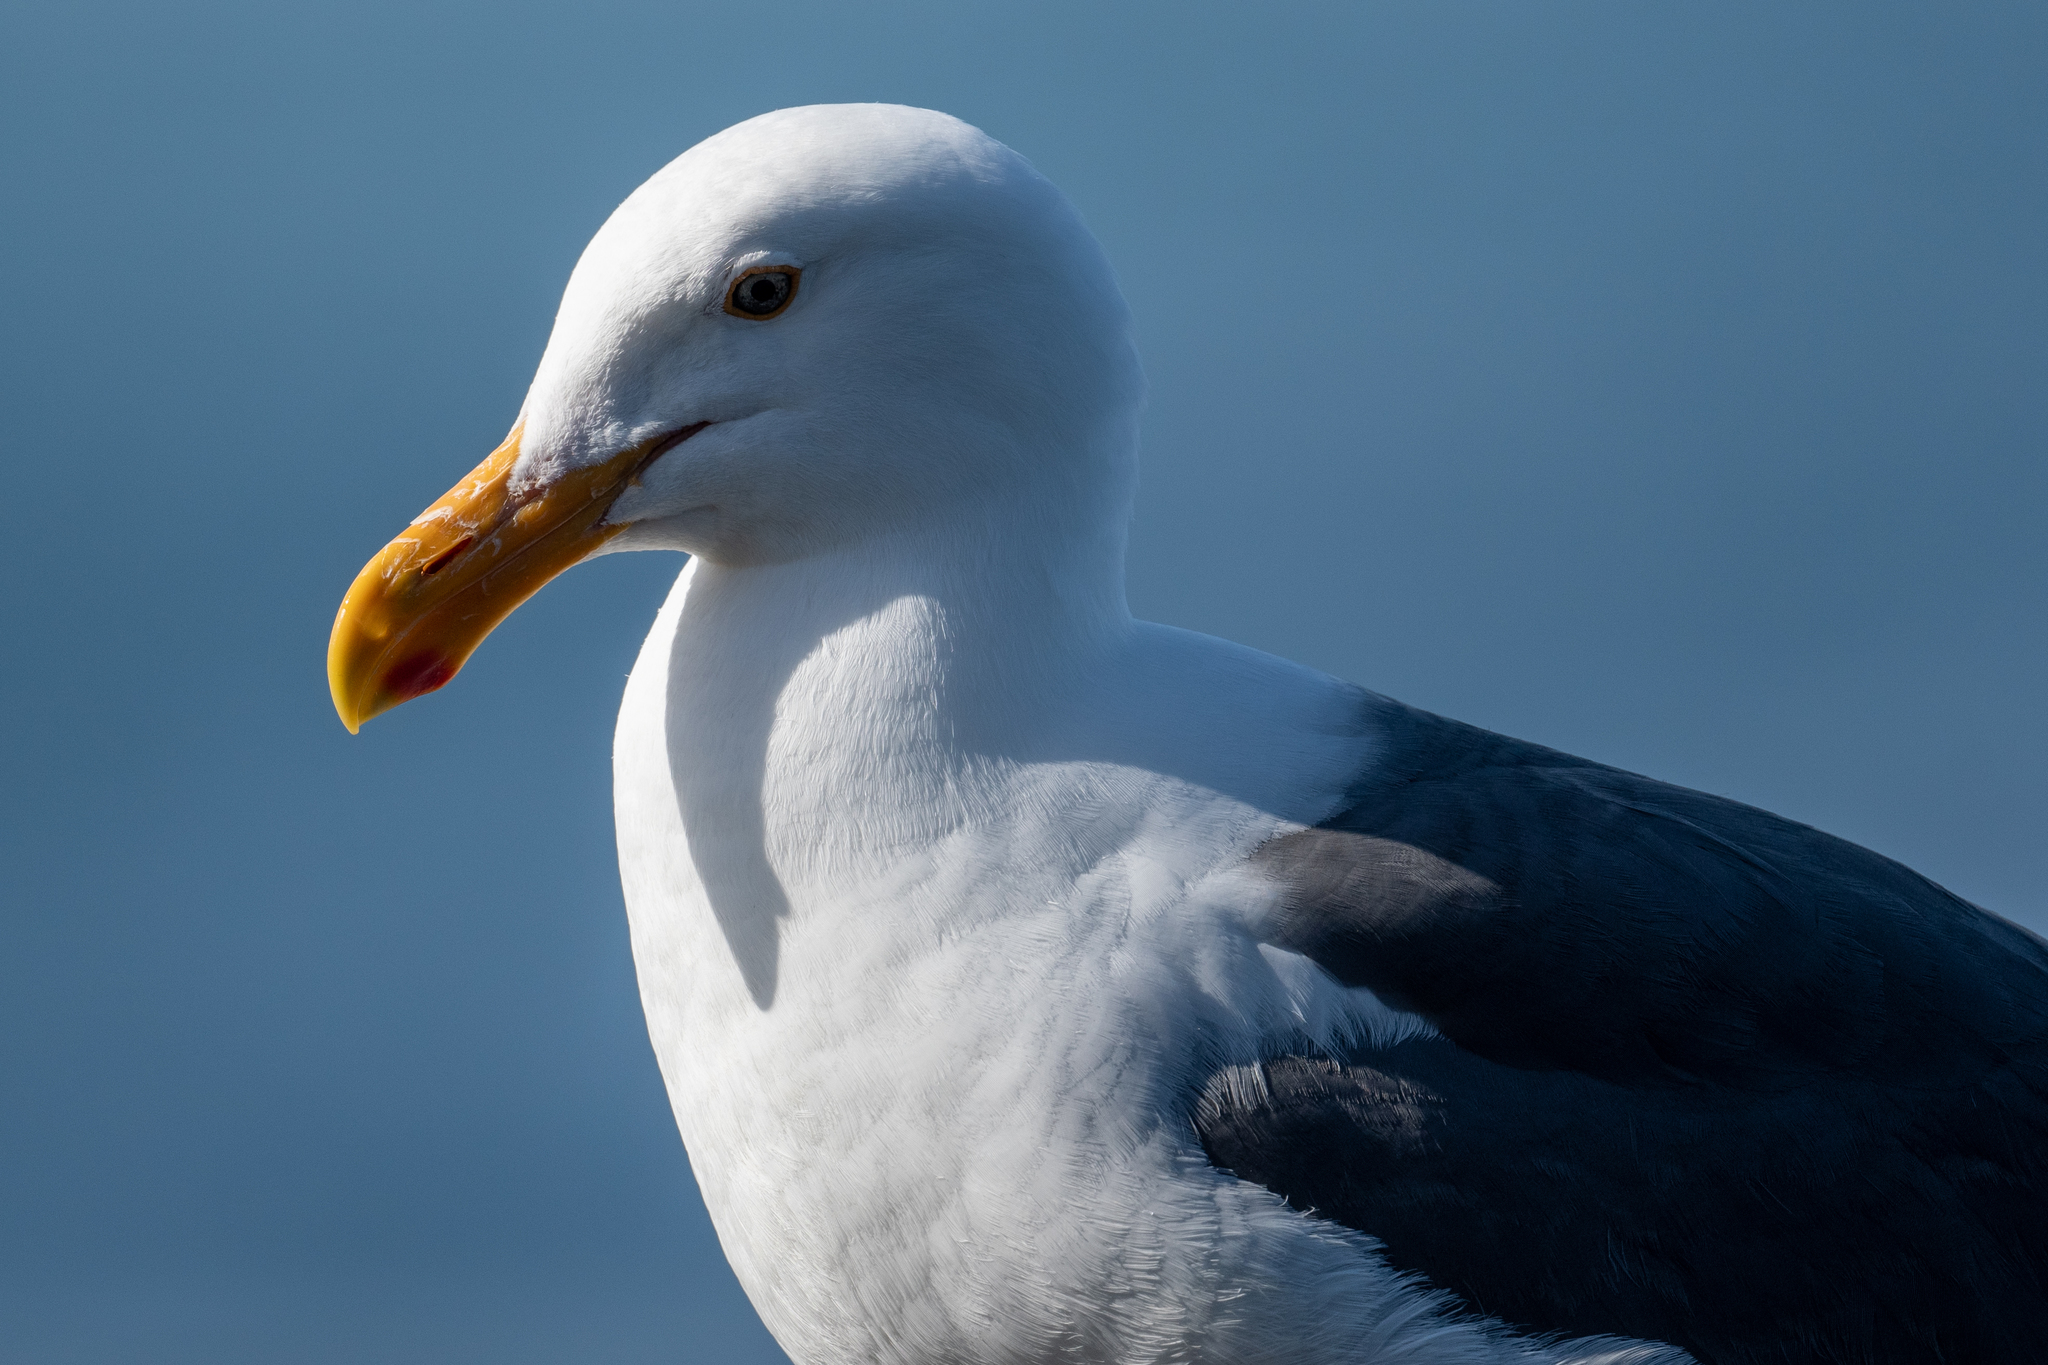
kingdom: Animalia
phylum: Chordata
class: Aves
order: Charadriiformes
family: Laridae
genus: Larus
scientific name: Larus occidentalis
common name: Western gull
